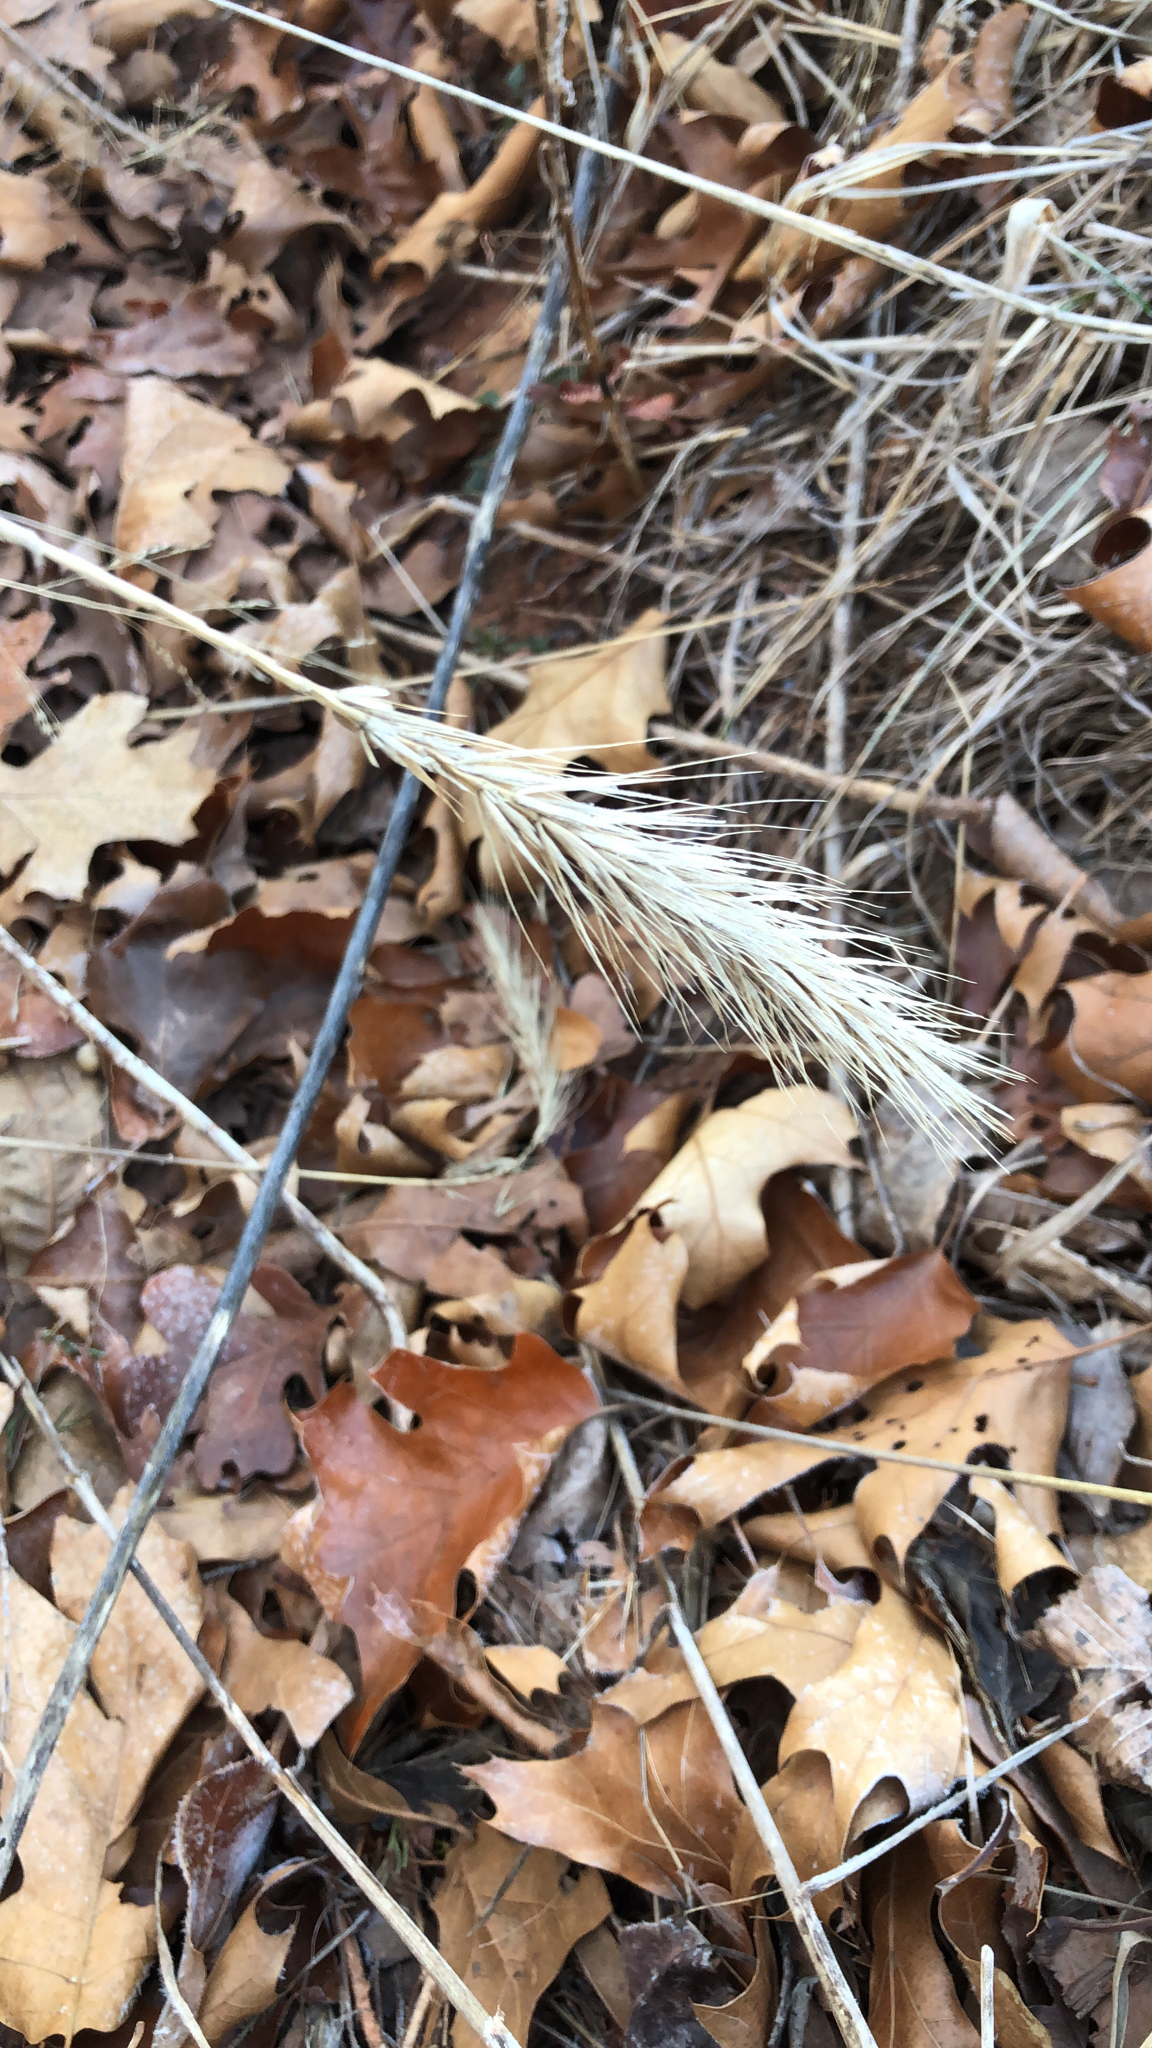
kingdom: Plantae
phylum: Tracheophyta
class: Liliopsida
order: Poales
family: Poaceae
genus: Elymus
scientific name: Elymus virginicus
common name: Common eastern wildrye
